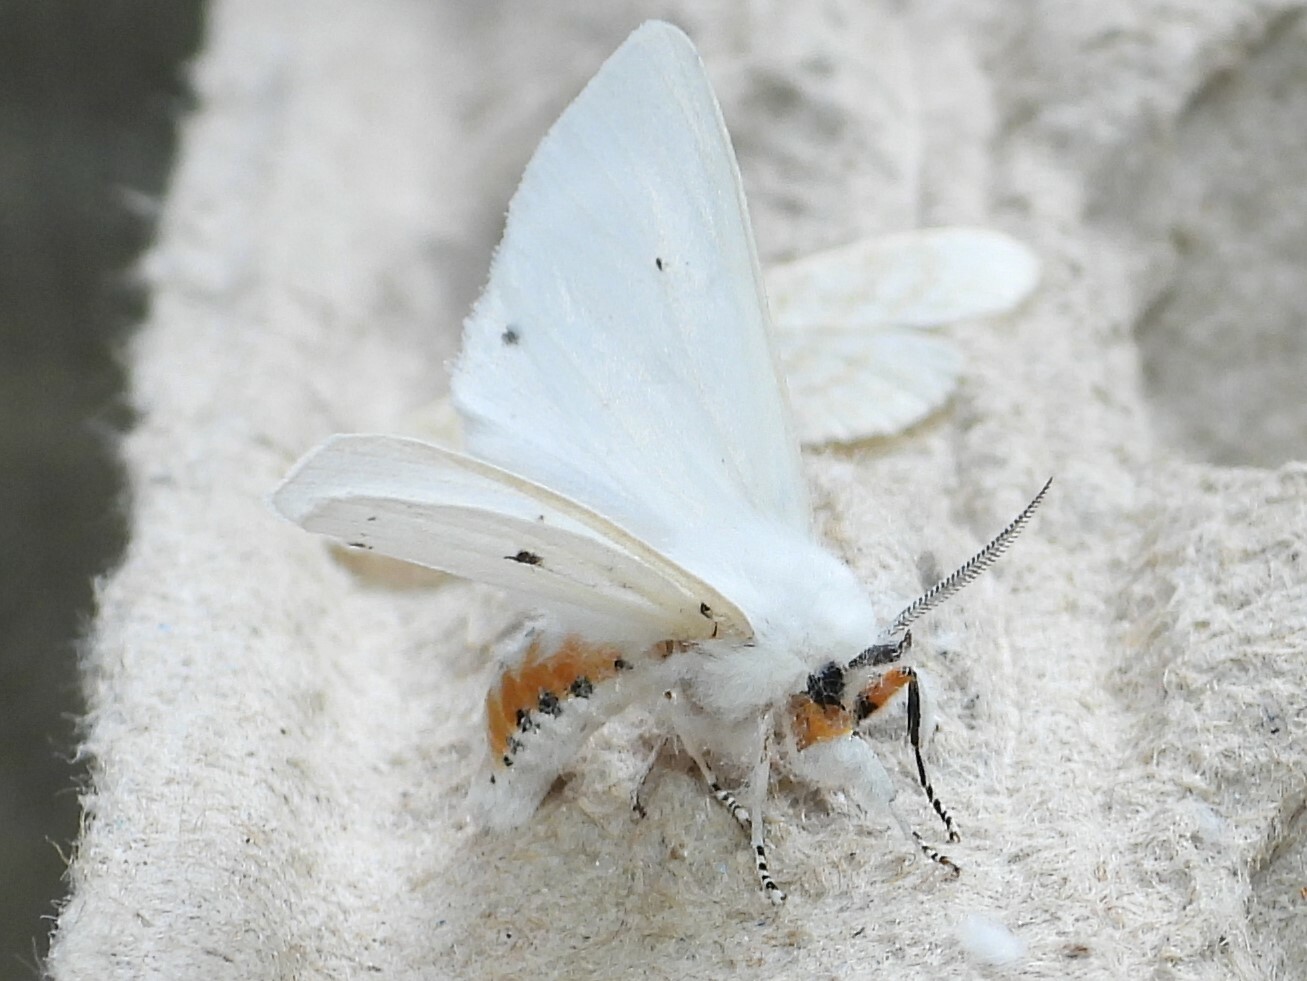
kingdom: Animalia
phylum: Arthropoda
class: Insecta
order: Lepidoptera
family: Erebidae
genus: Spilosoma
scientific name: Spilosoma virginica
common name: Virginia tiger moth
